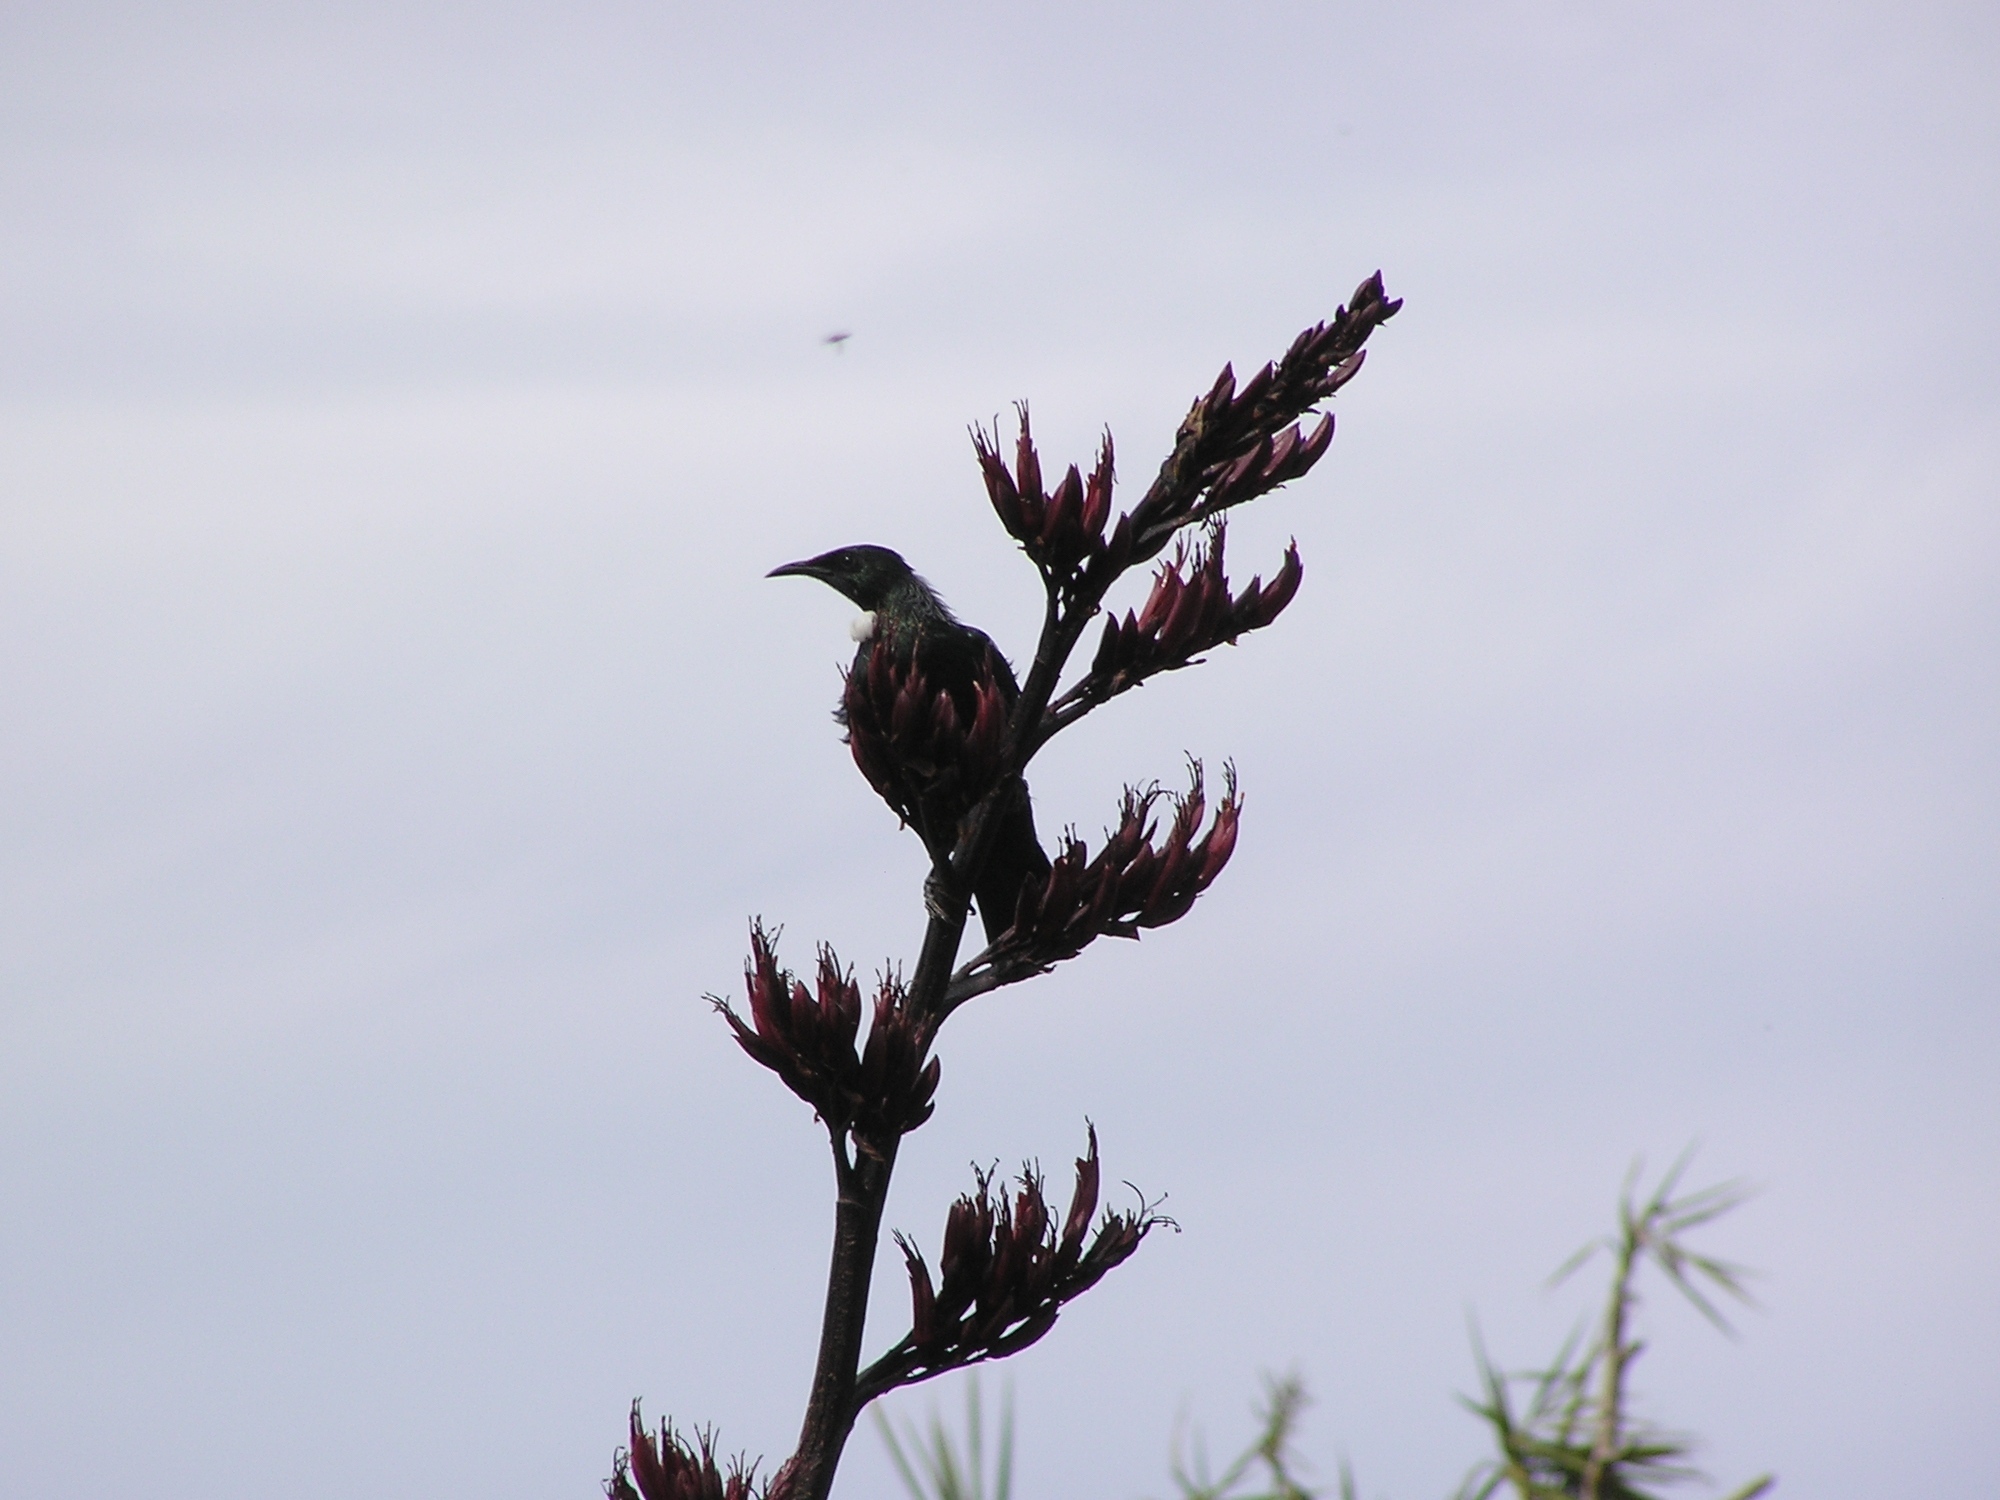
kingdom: Animalia
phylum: Chordata
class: Aves
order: Passeriformes
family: Meliphagidae
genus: Prosthemadera
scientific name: Prosthemadera novaeseelandiae
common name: Tui
